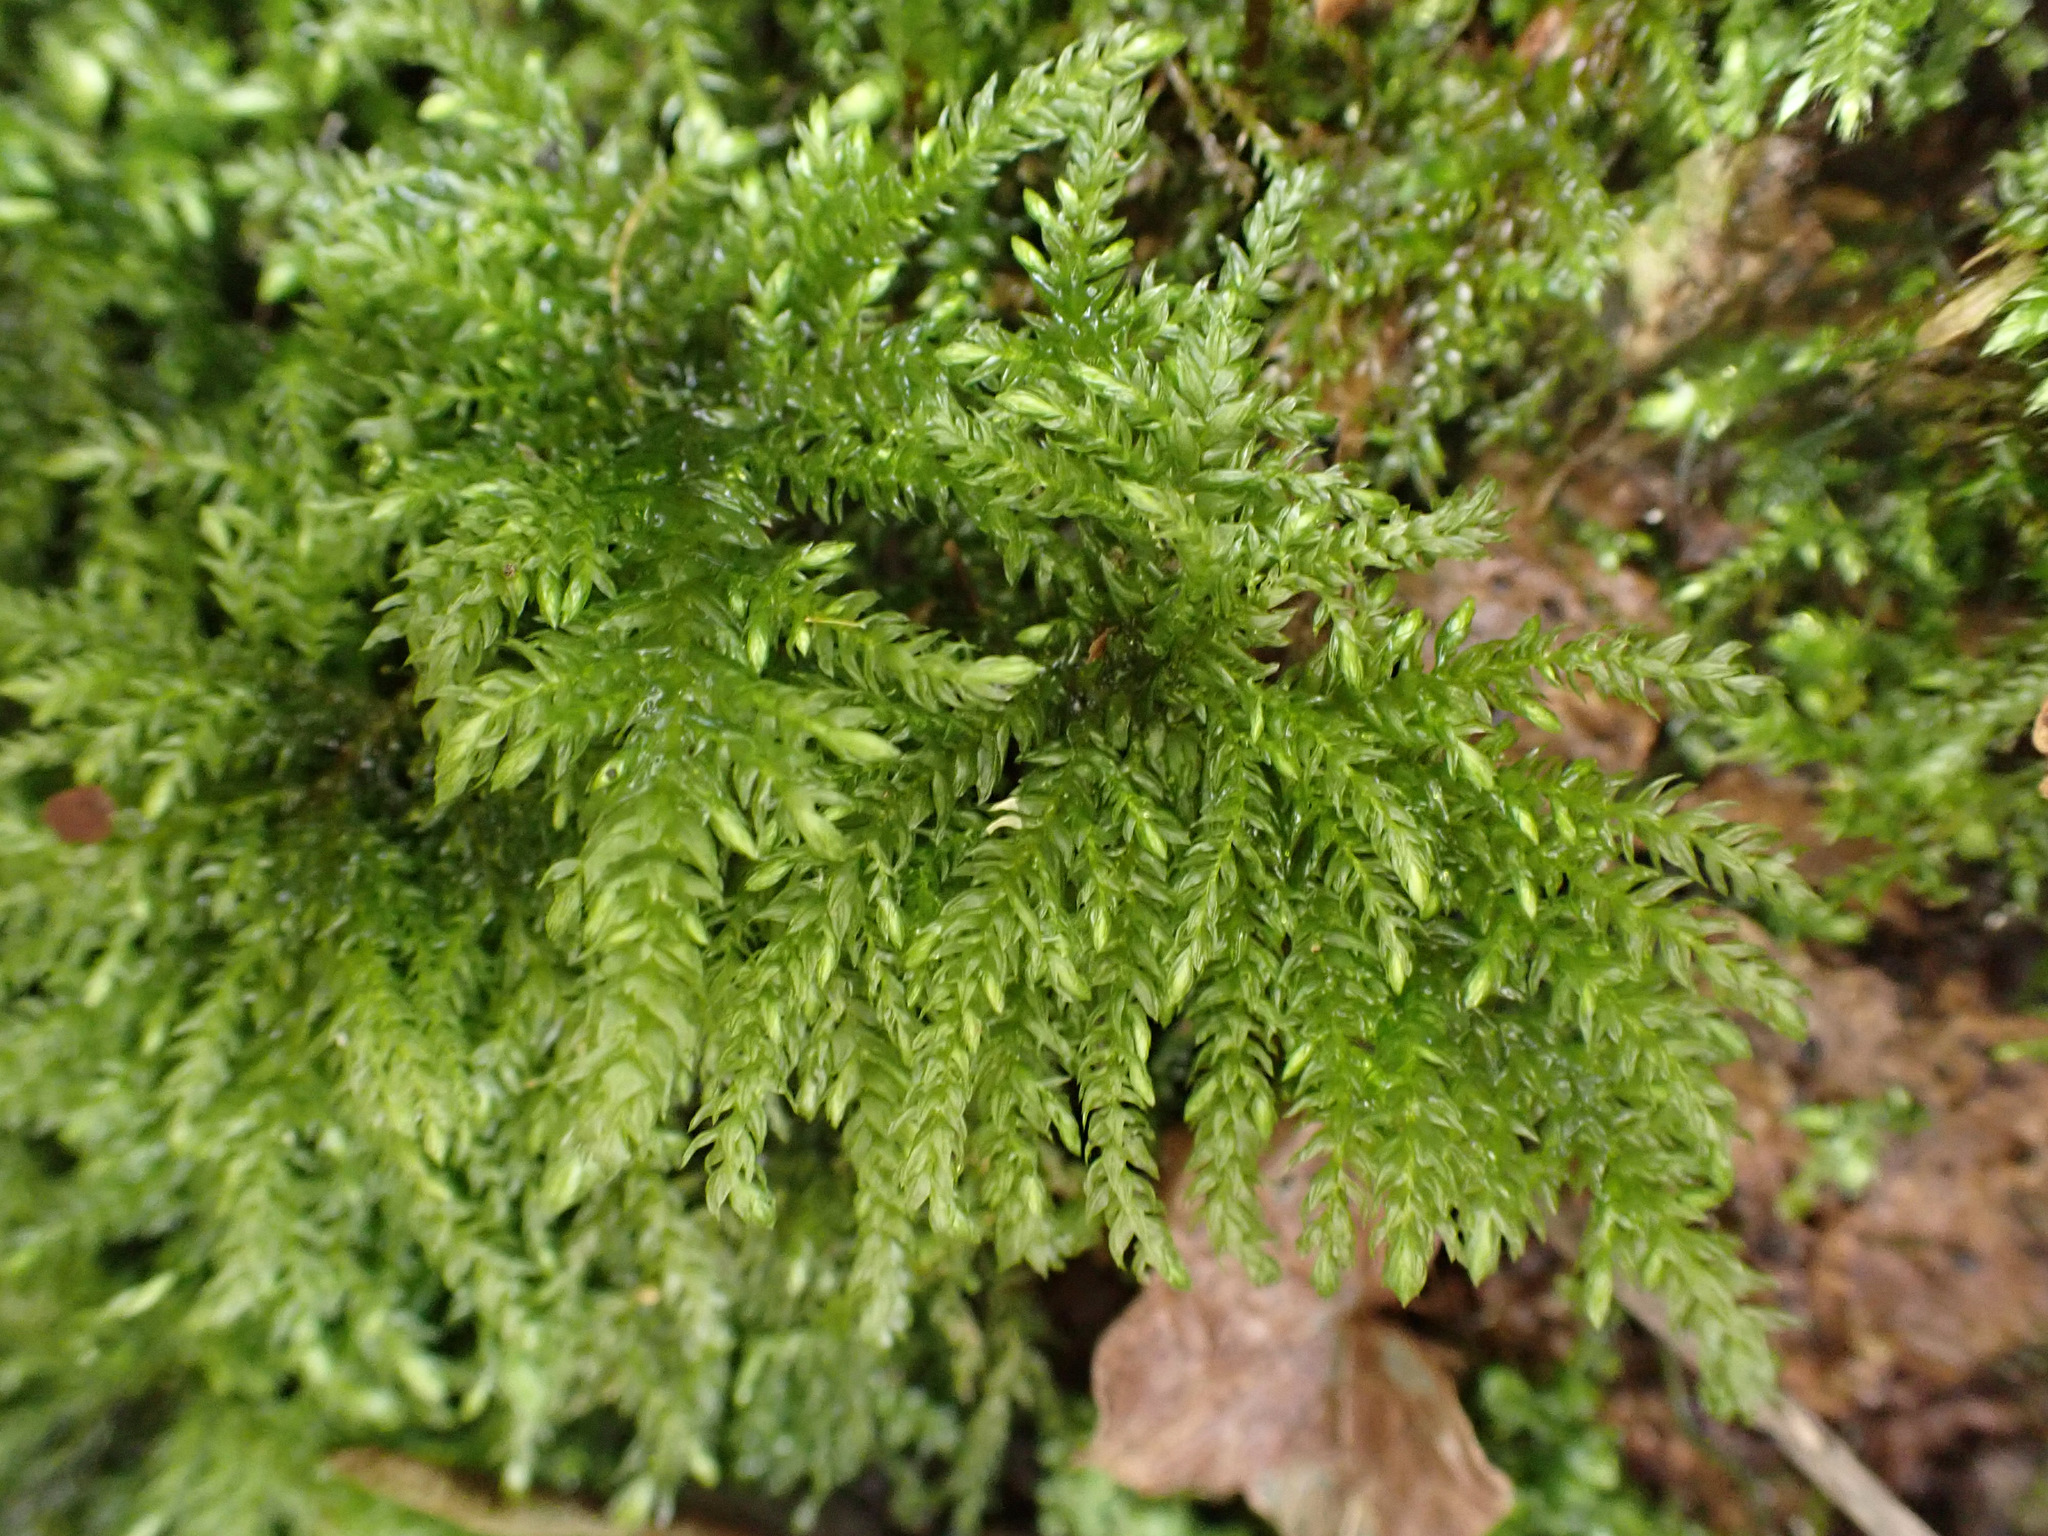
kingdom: Plantae
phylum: Bryophyta
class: Bryopsida
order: Hypnales
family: Neckeraceae
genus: Thamnobryum
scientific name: Thamnobryum alopecurum
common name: Fox-tail feather-moss
